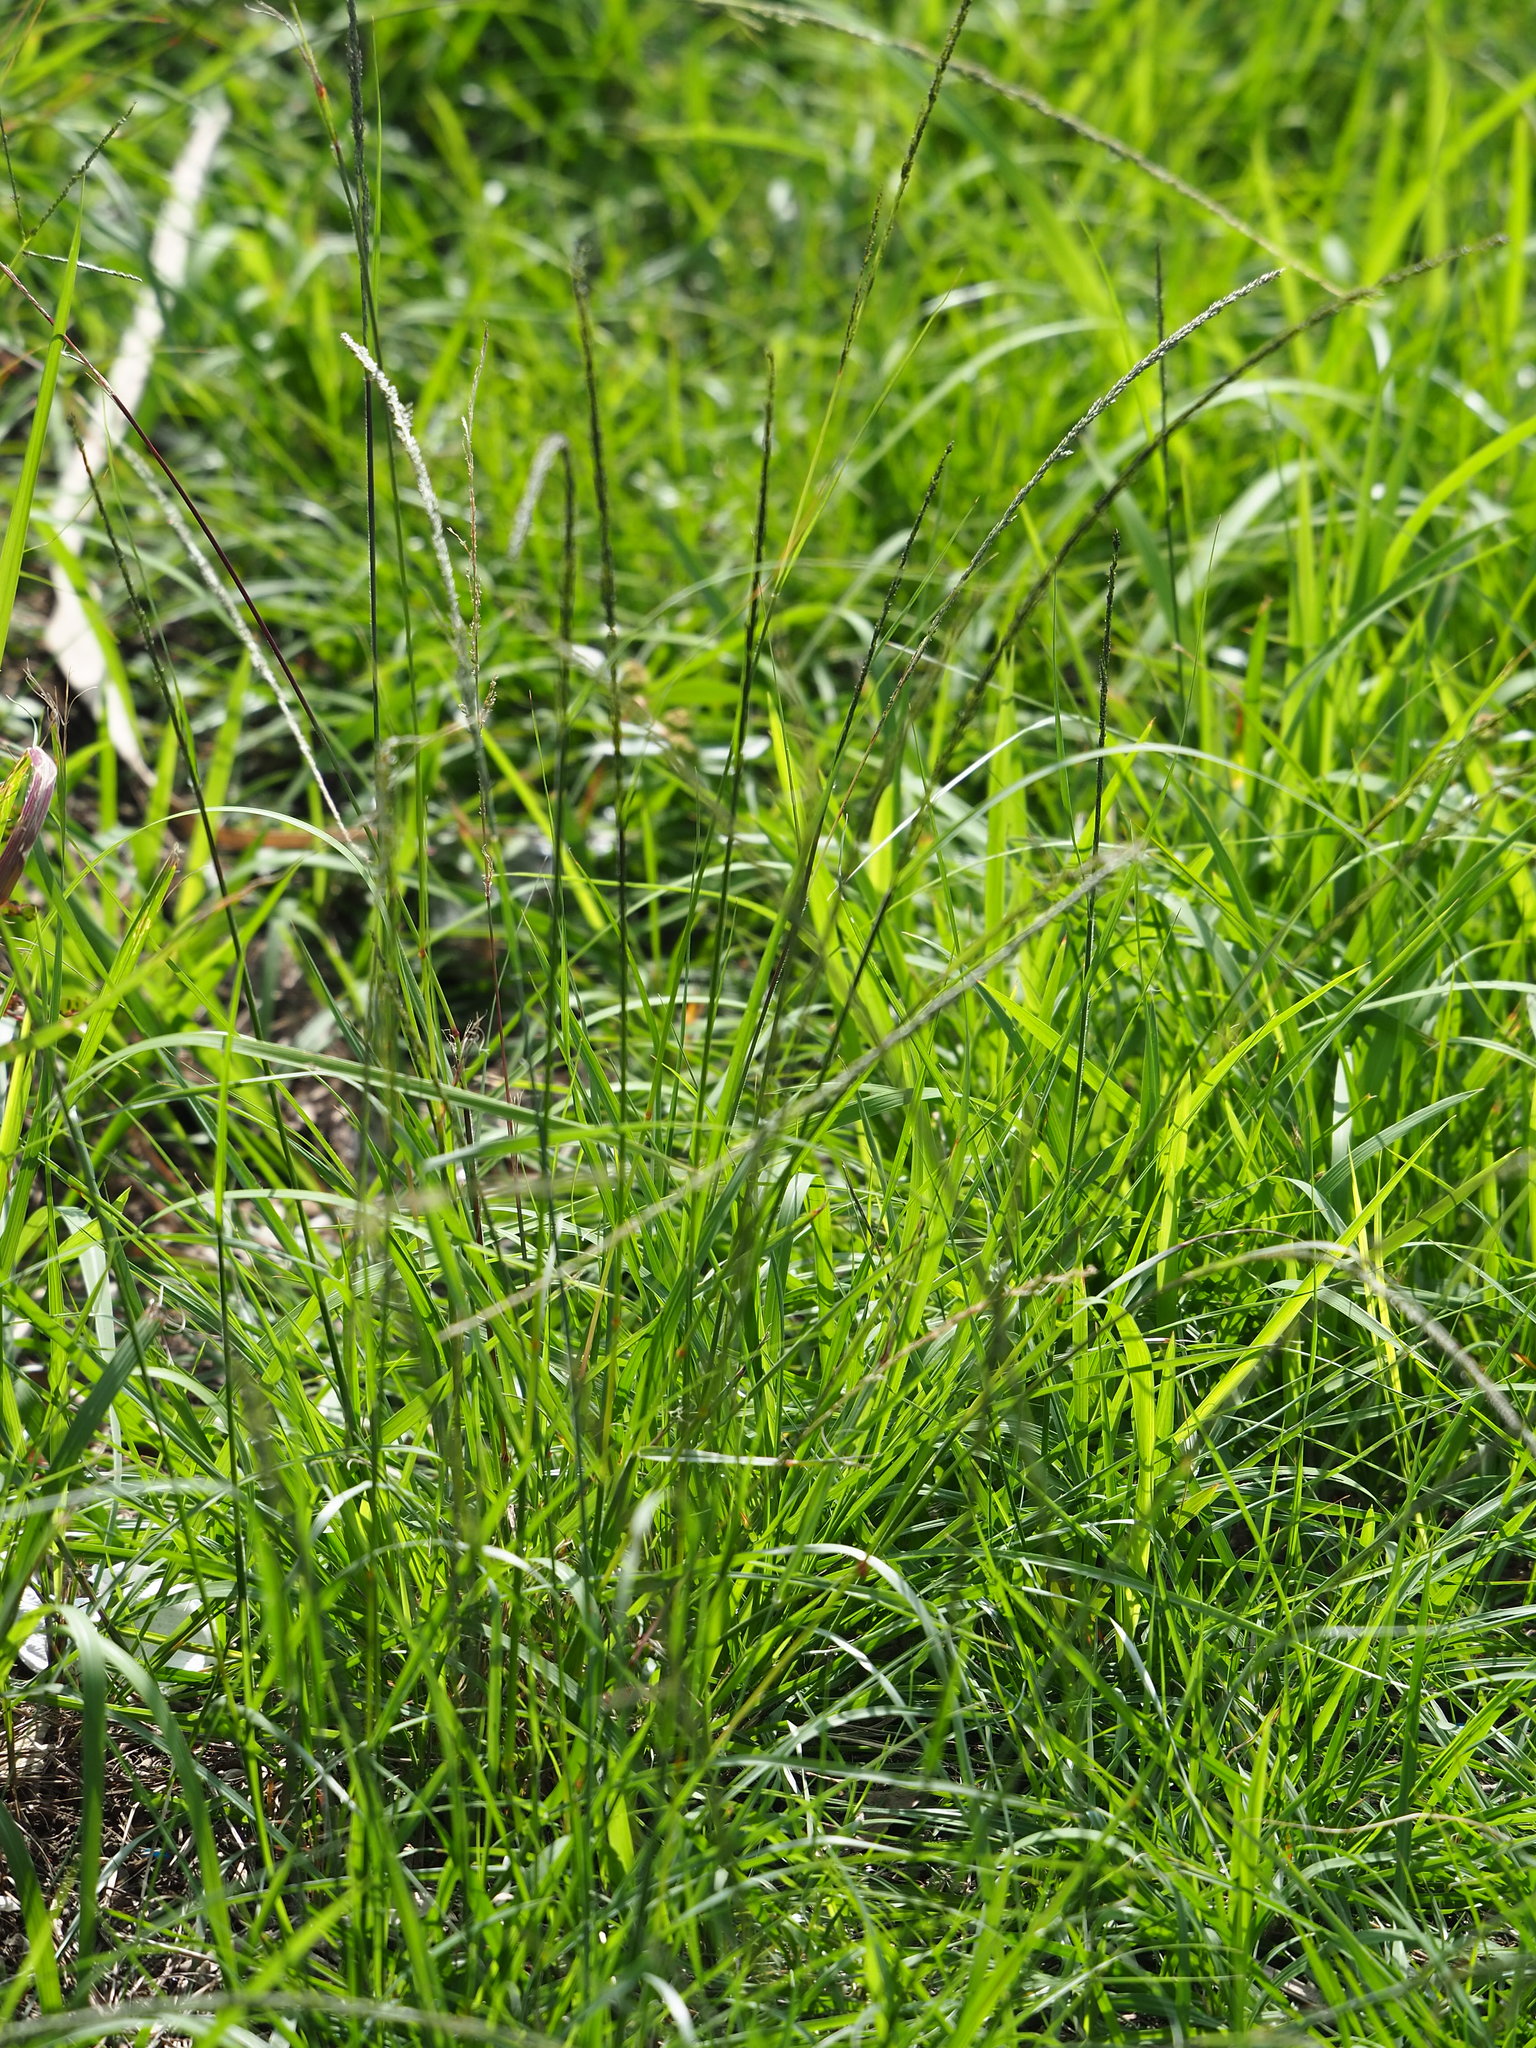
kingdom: Plantae
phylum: Tracheophyta
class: Liliopsida
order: Poales
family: Poaceae
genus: Sporobolus
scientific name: Sporobolus indicus
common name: Smut grass
